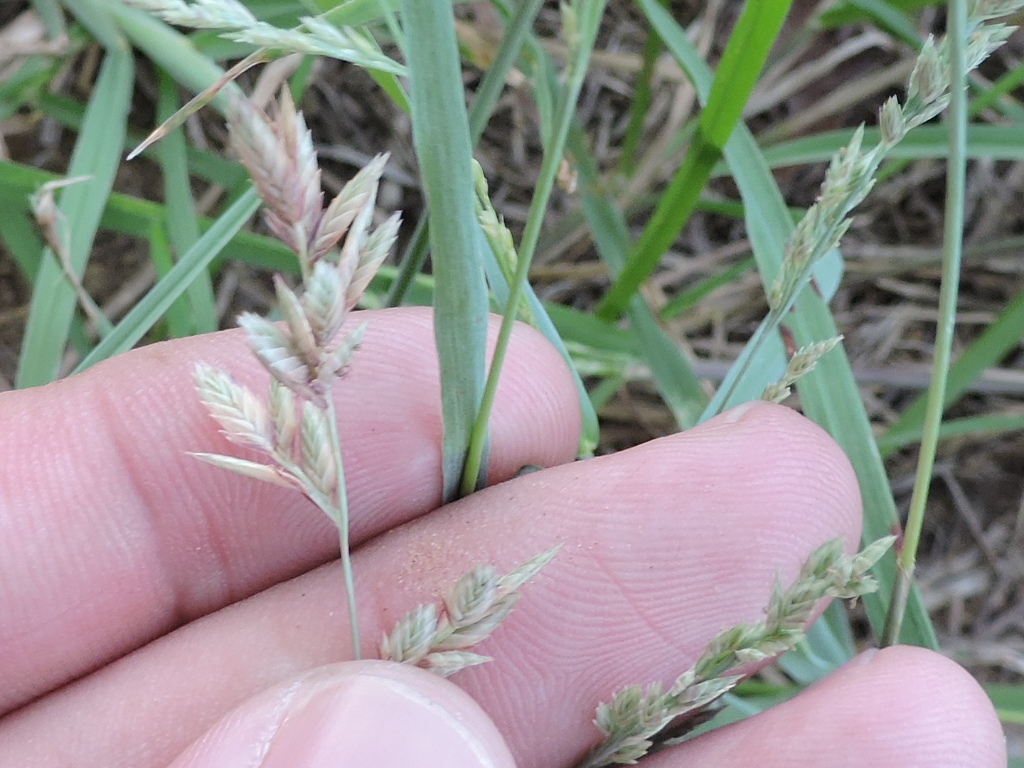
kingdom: Plantae
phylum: Tracheophyta
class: Liliopsida
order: Poales
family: Poaceae
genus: Eragrostis
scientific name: Eragrostis secundiflora
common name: Red love grass
